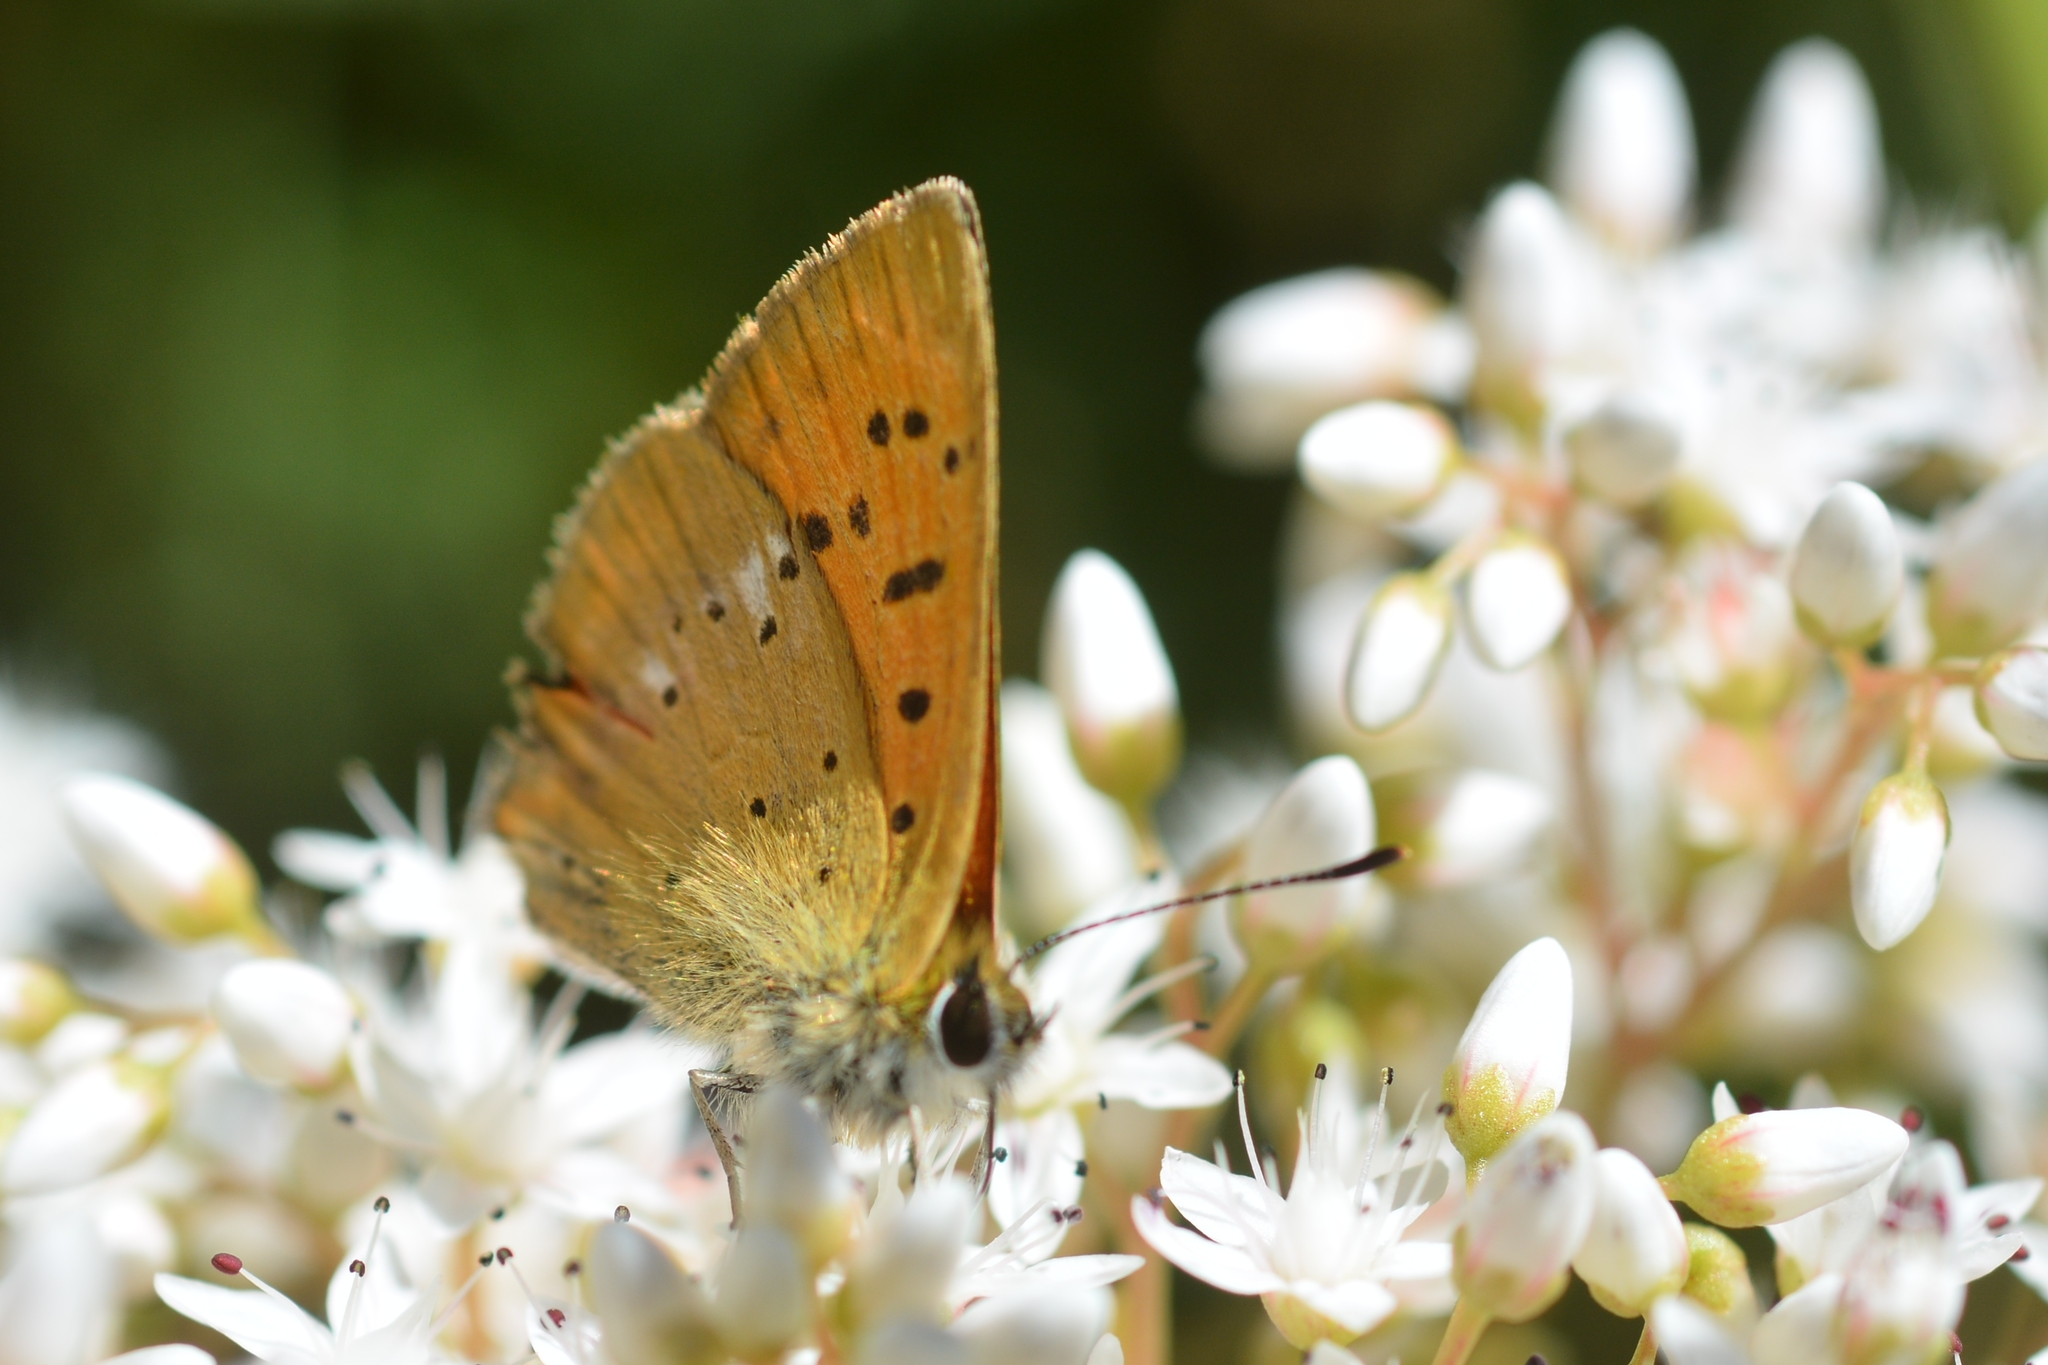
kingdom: Animalia
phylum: Arthropoda
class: Insecta
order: Lepidoptera
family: Lycaenidae
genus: Lycaena
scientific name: Lycaena virgaureae
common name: Scarce copper
